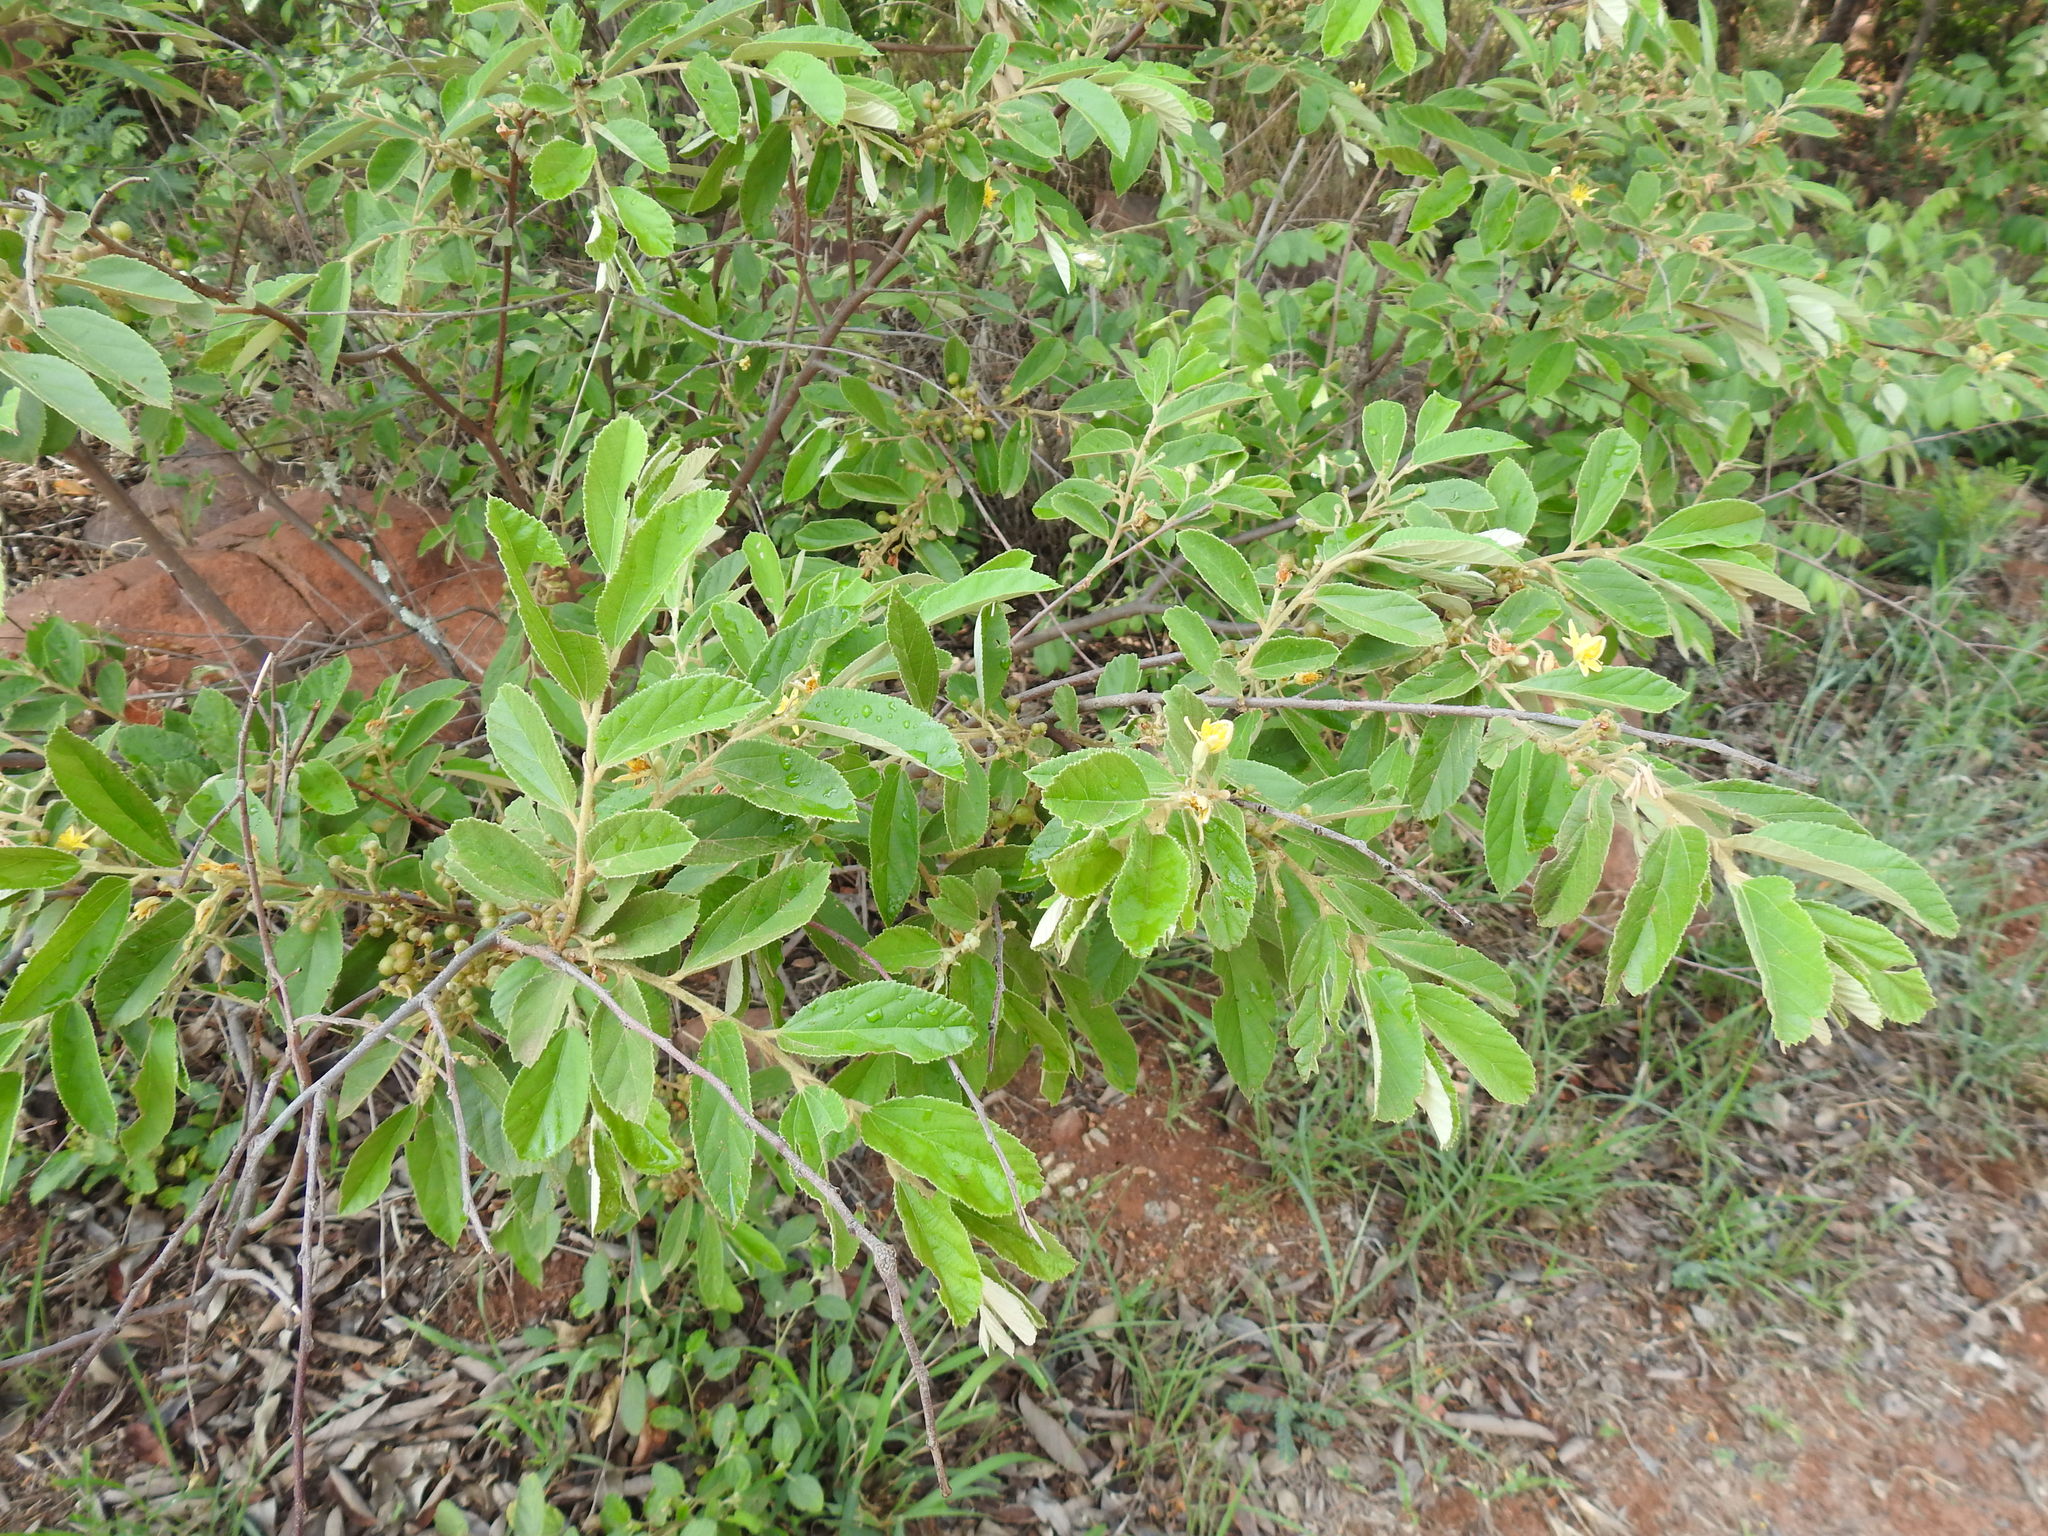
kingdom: Plantae
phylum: Tracheophyta
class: Magnoliopsida
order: Malvales
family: Malvaceae
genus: Grewia
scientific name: Grewia bicolor
